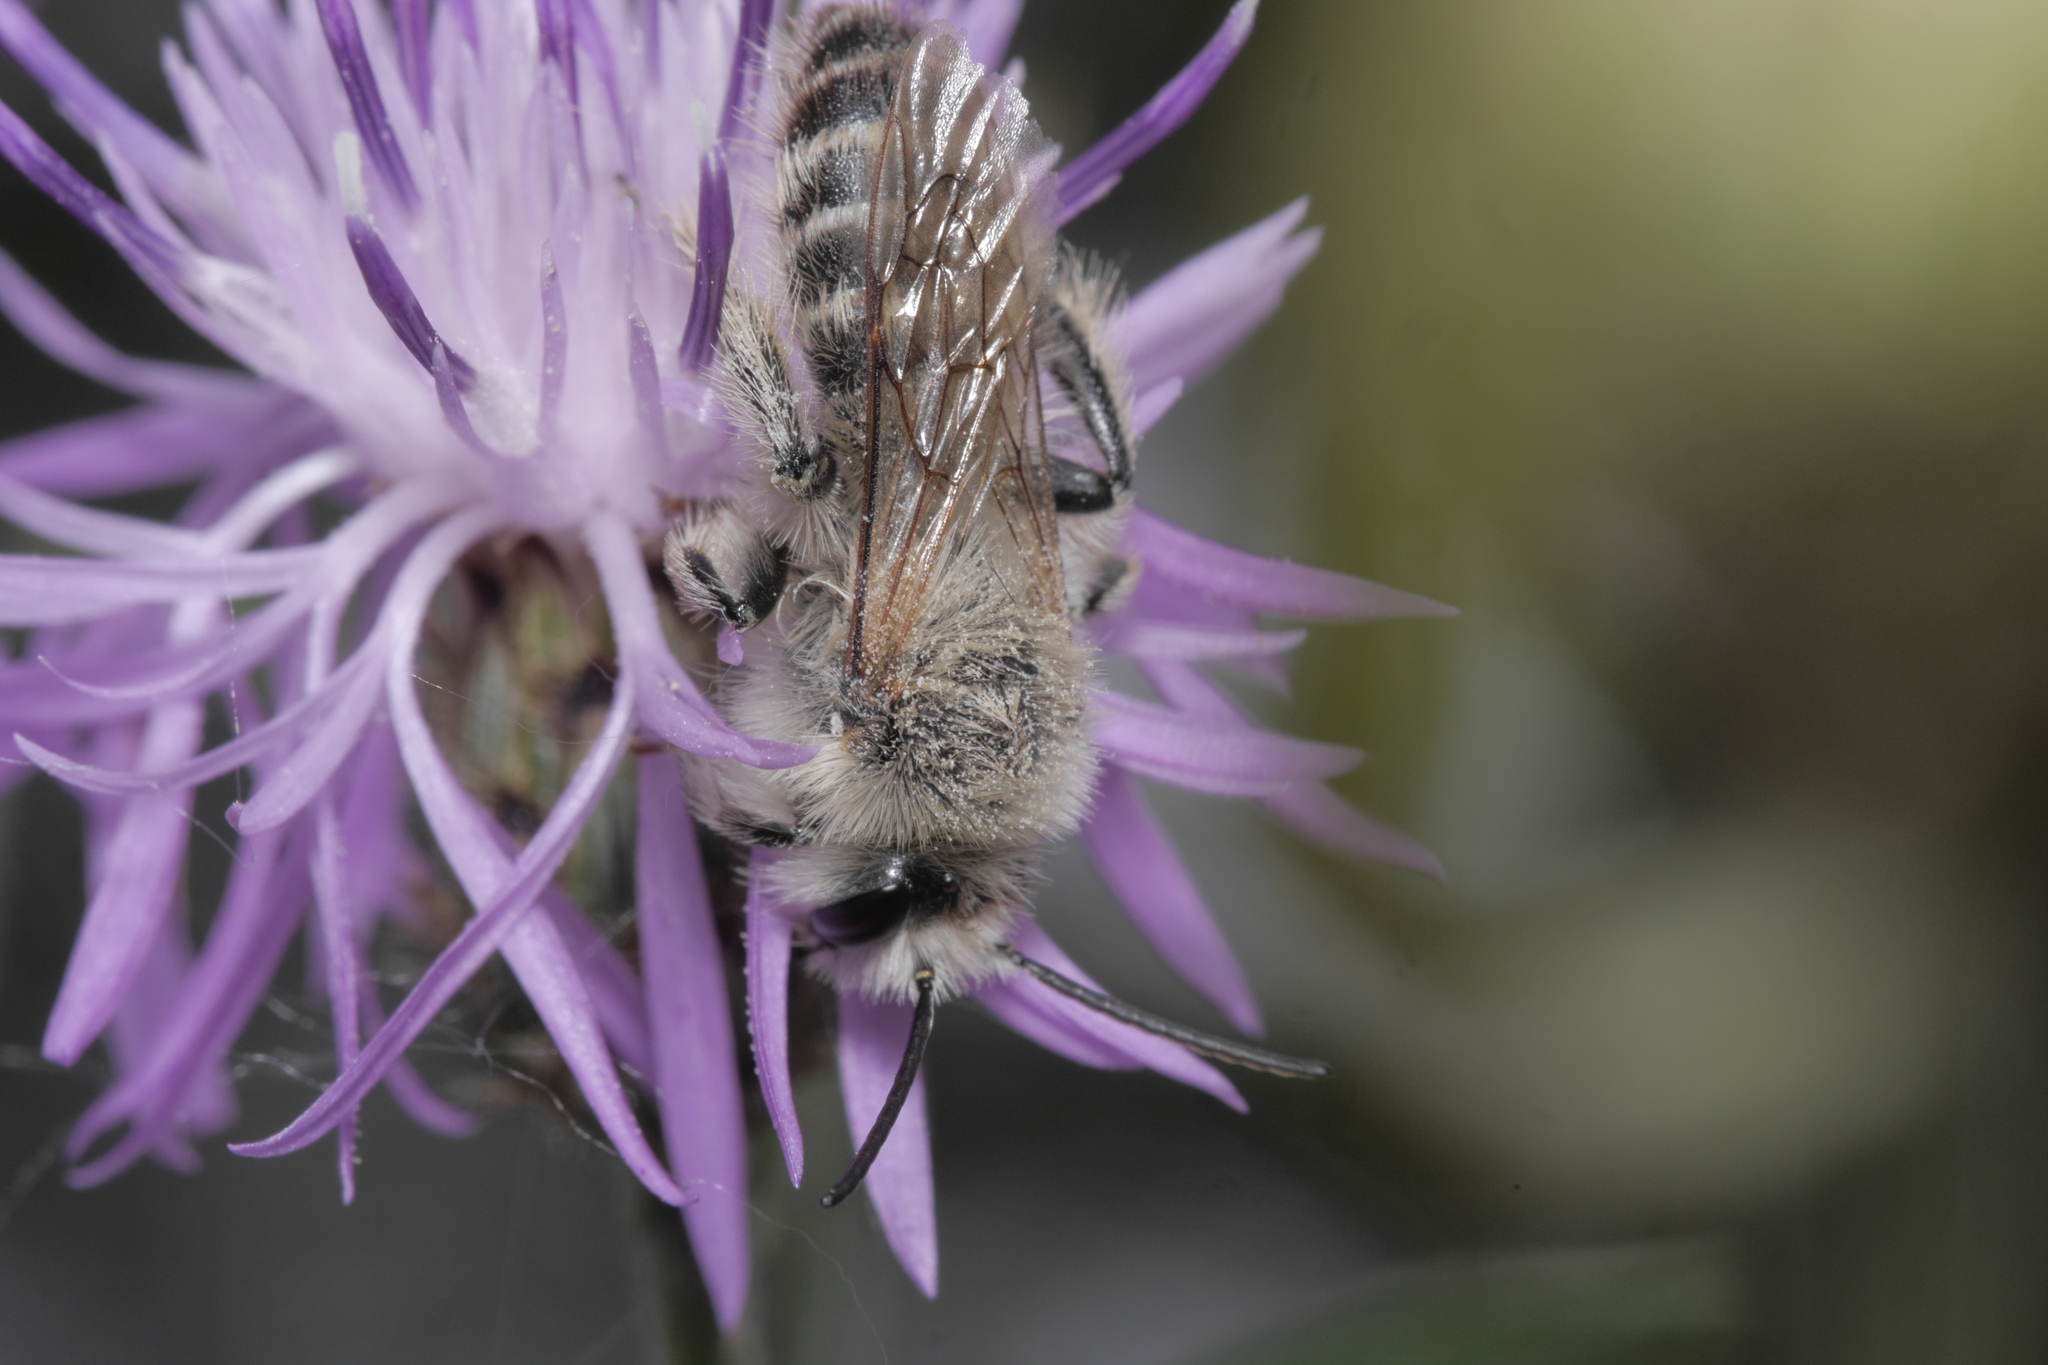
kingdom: Animalia
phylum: Arthropoda
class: Insecta
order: Hymenoptera
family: Melittidae
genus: Dasypoda
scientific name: Dasypoda hirtipes
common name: Pantaloon bee
